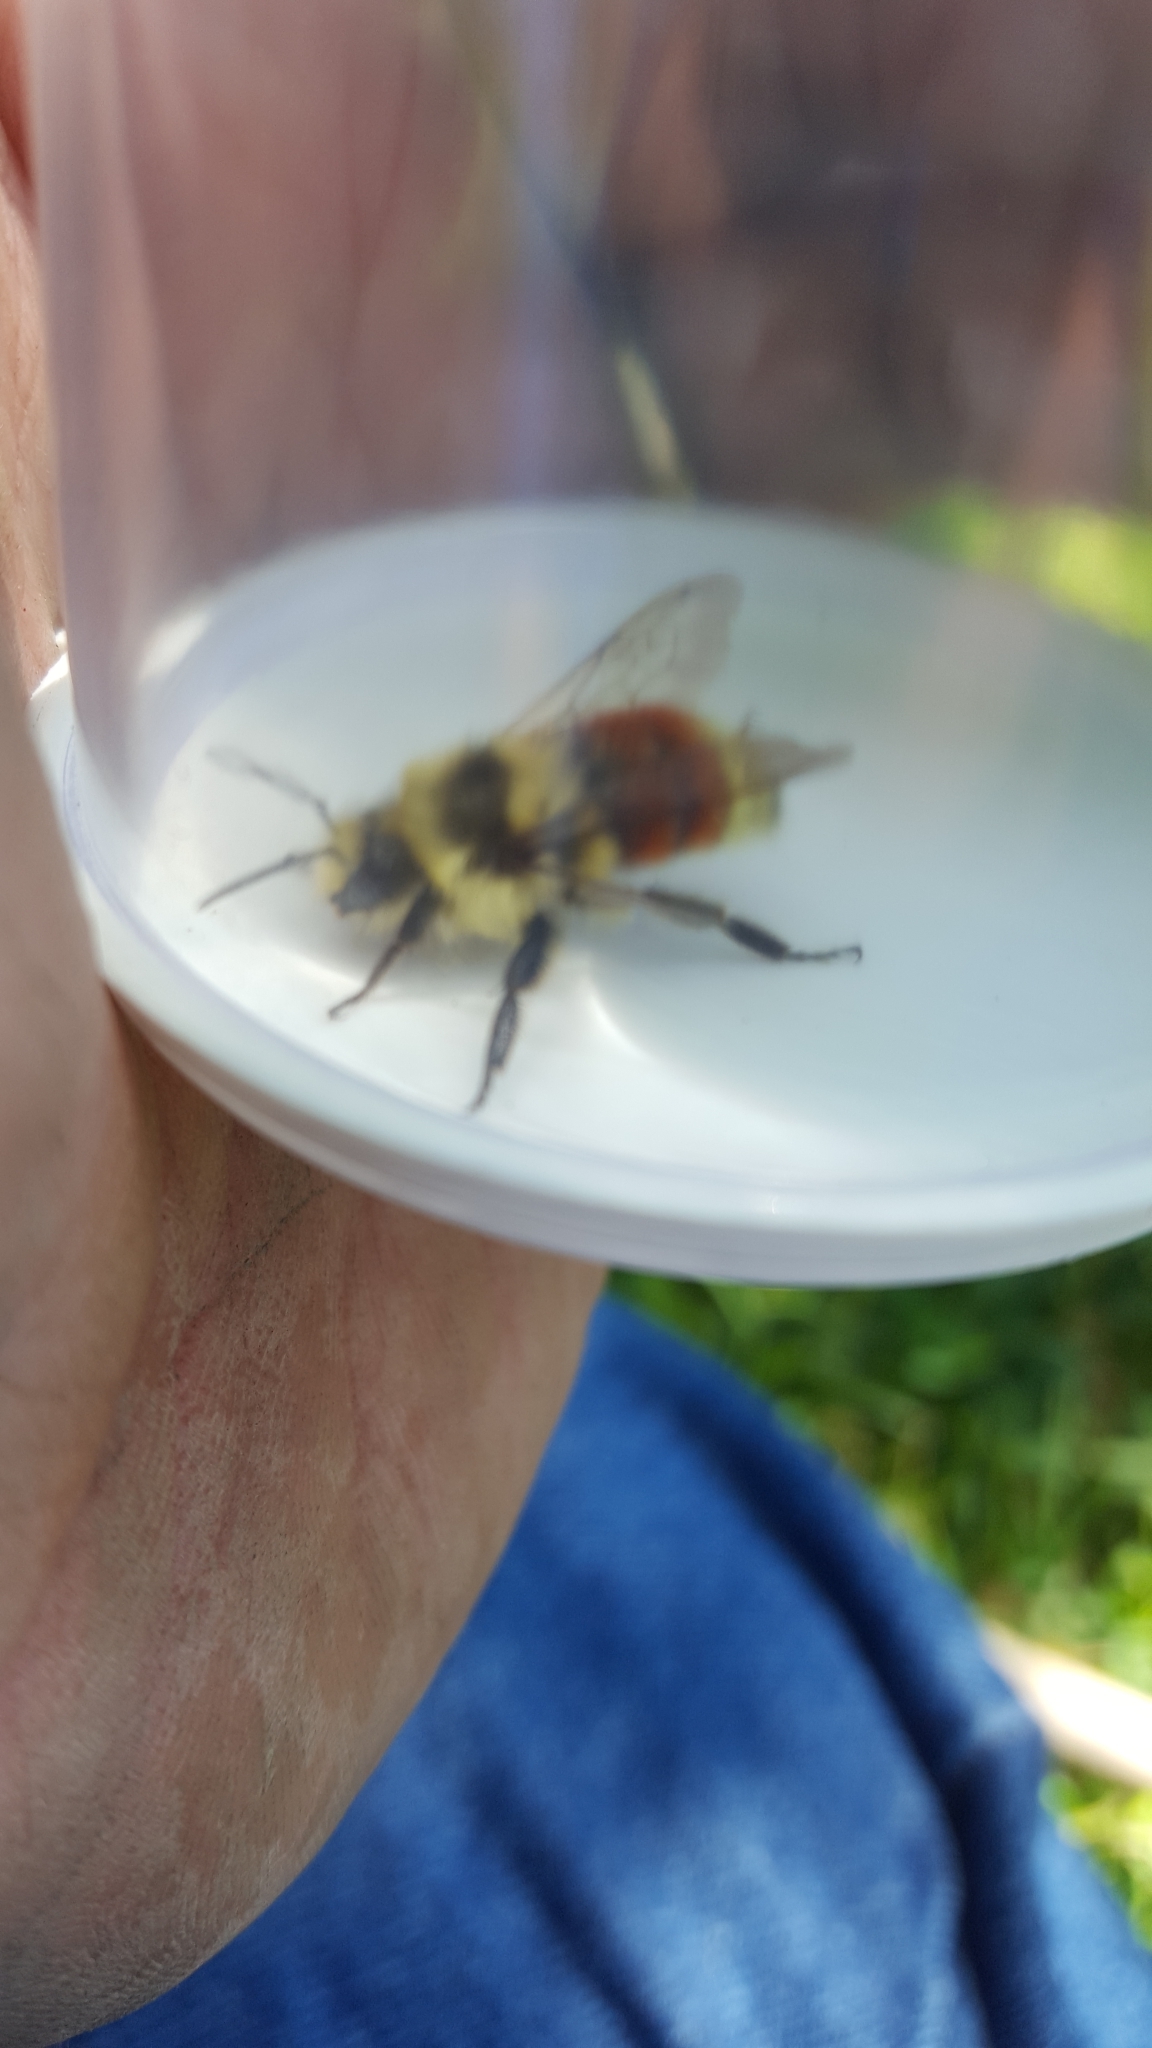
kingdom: Animalia
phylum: Arthropoda
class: Insecta
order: Hymenoptera
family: Apidae
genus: Bombus
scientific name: Bombus huntii
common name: Hunt bumble bee
